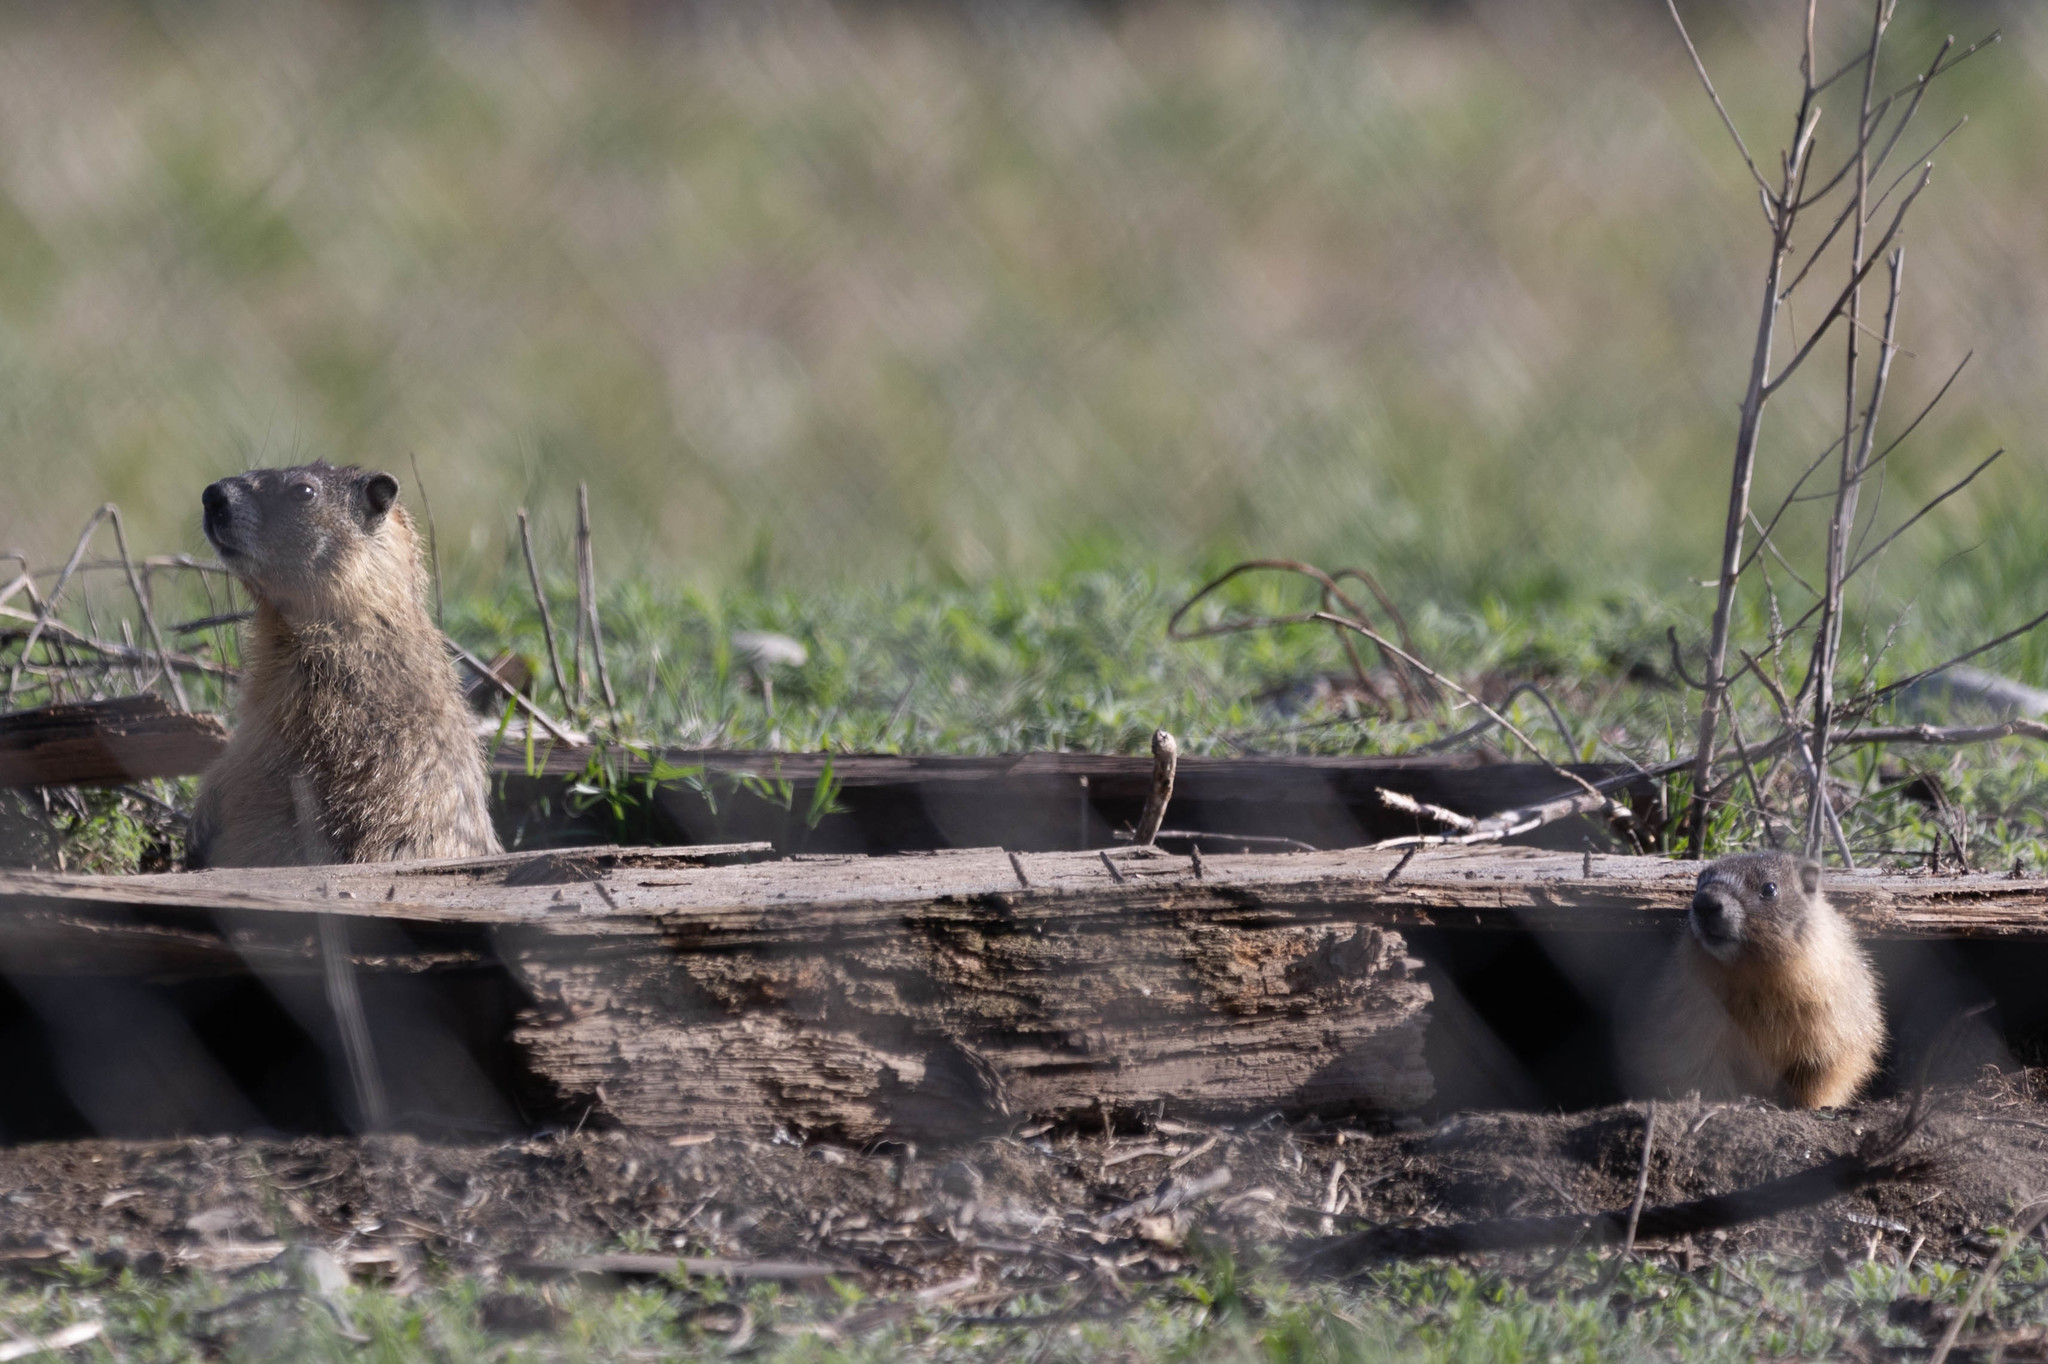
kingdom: Animalia
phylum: Chordata
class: Mammalia
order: Rodentia
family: Sciuridae
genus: Marmota
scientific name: Marmota flaviventris
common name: Yellow-bellied marmot
